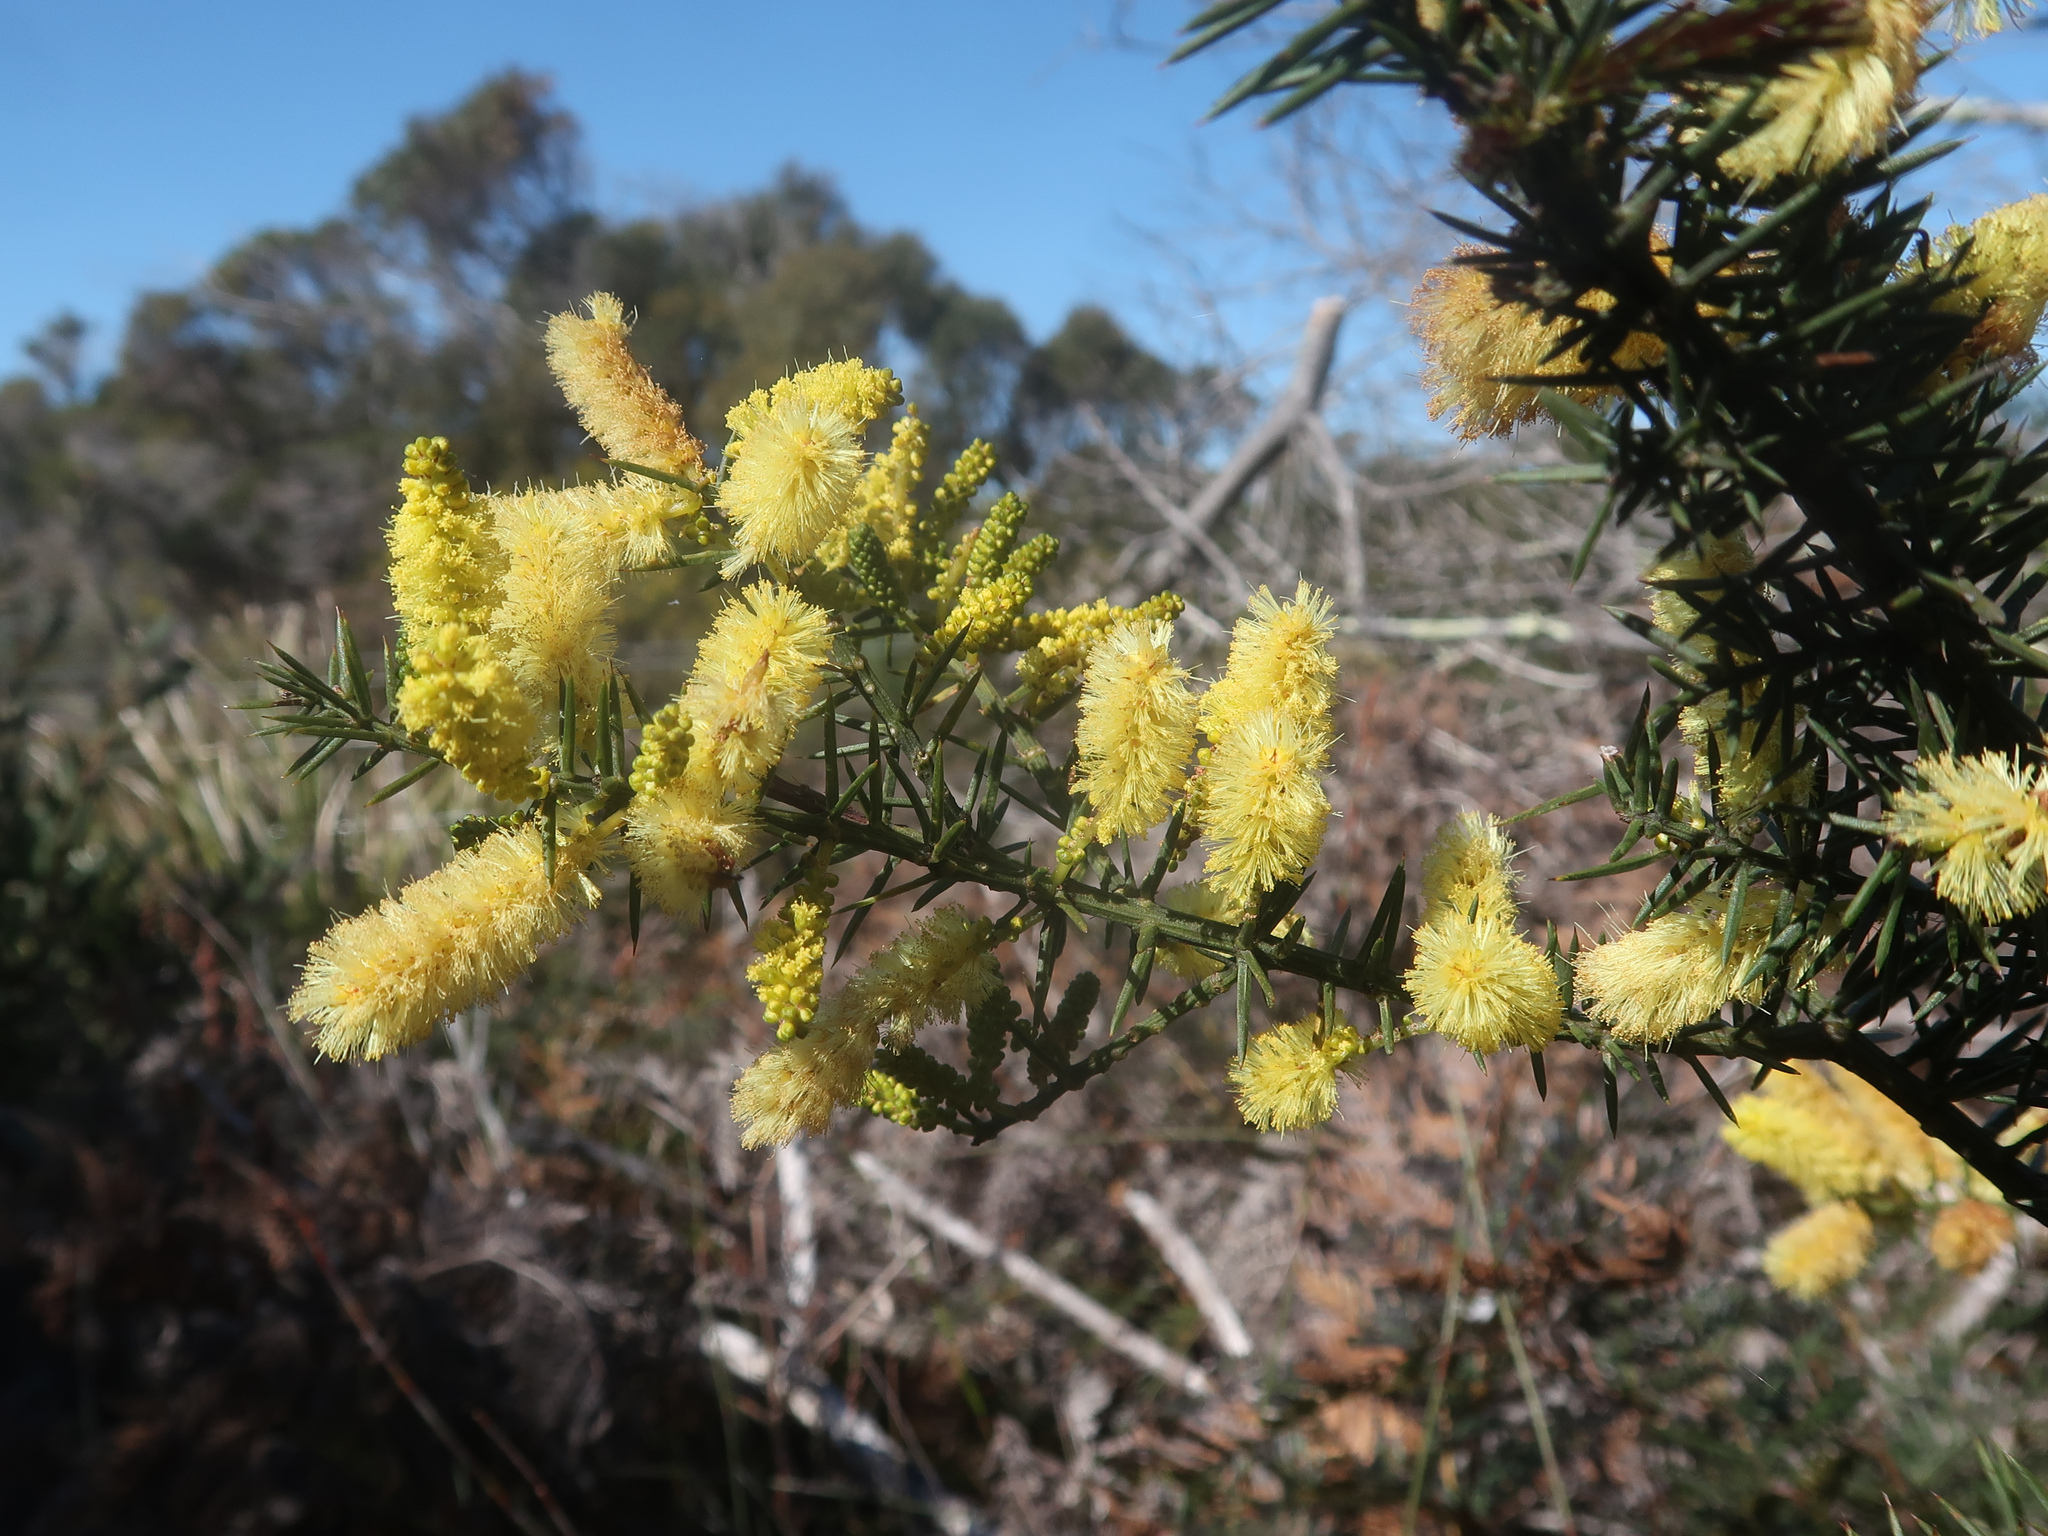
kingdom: Plantae
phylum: Tracheophyta
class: Magnoliopsida
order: Fabales
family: Fabaceae
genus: Acacia
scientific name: Acacia verticillata
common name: Prickly moses
